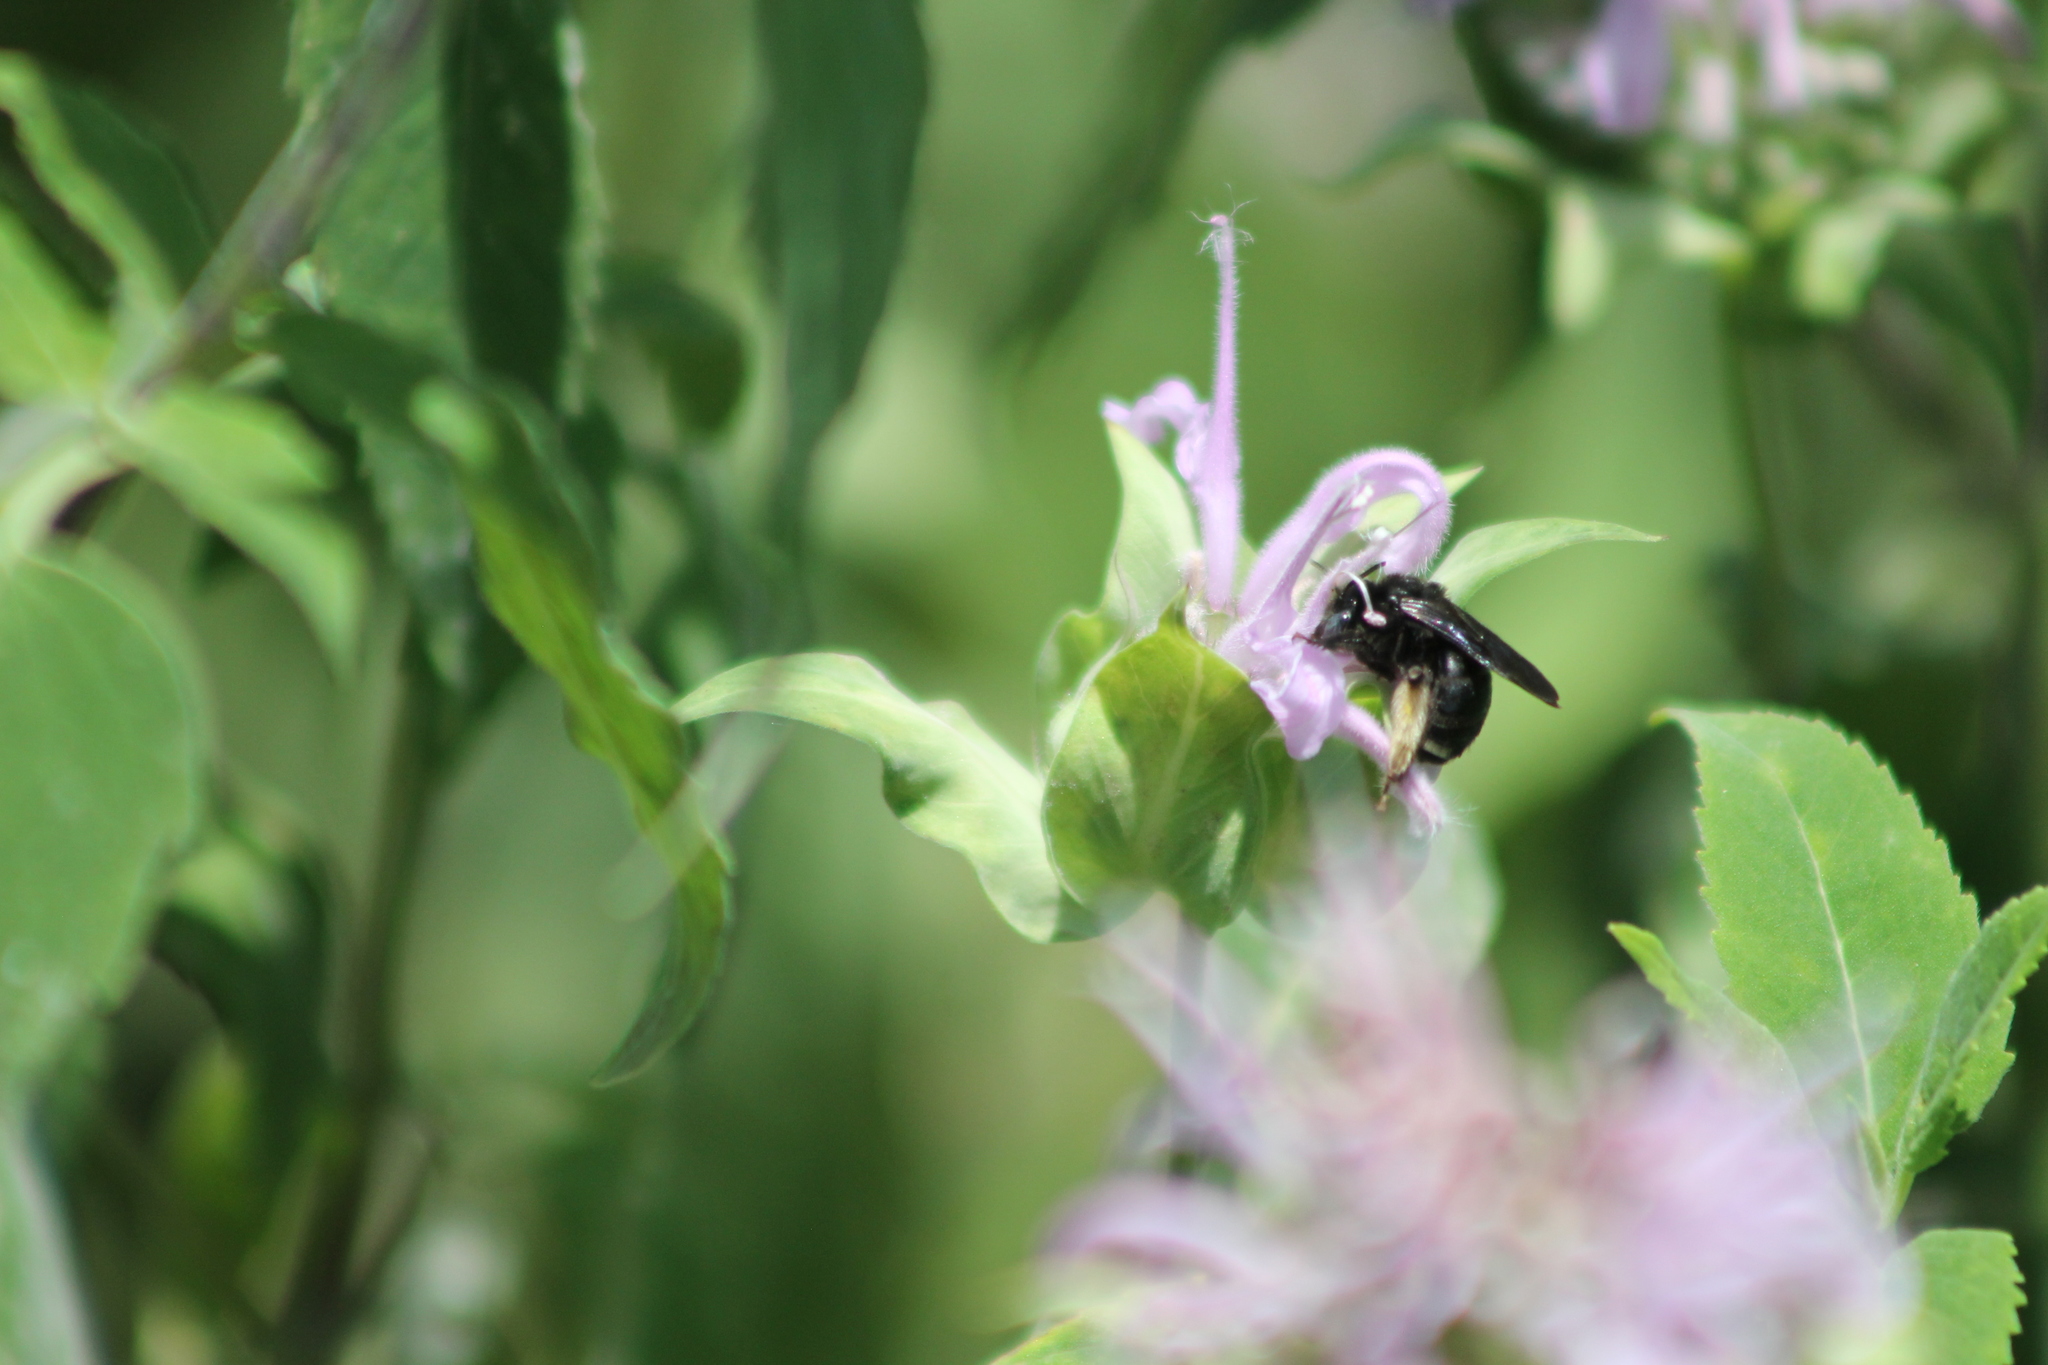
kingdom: Animalia
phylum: Arthropoda
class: Insecta
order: Hymenoptera
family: Apidae
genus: Melissodes
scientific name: Melissodes bimaculatus
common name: Two-spotted long-horned bee
